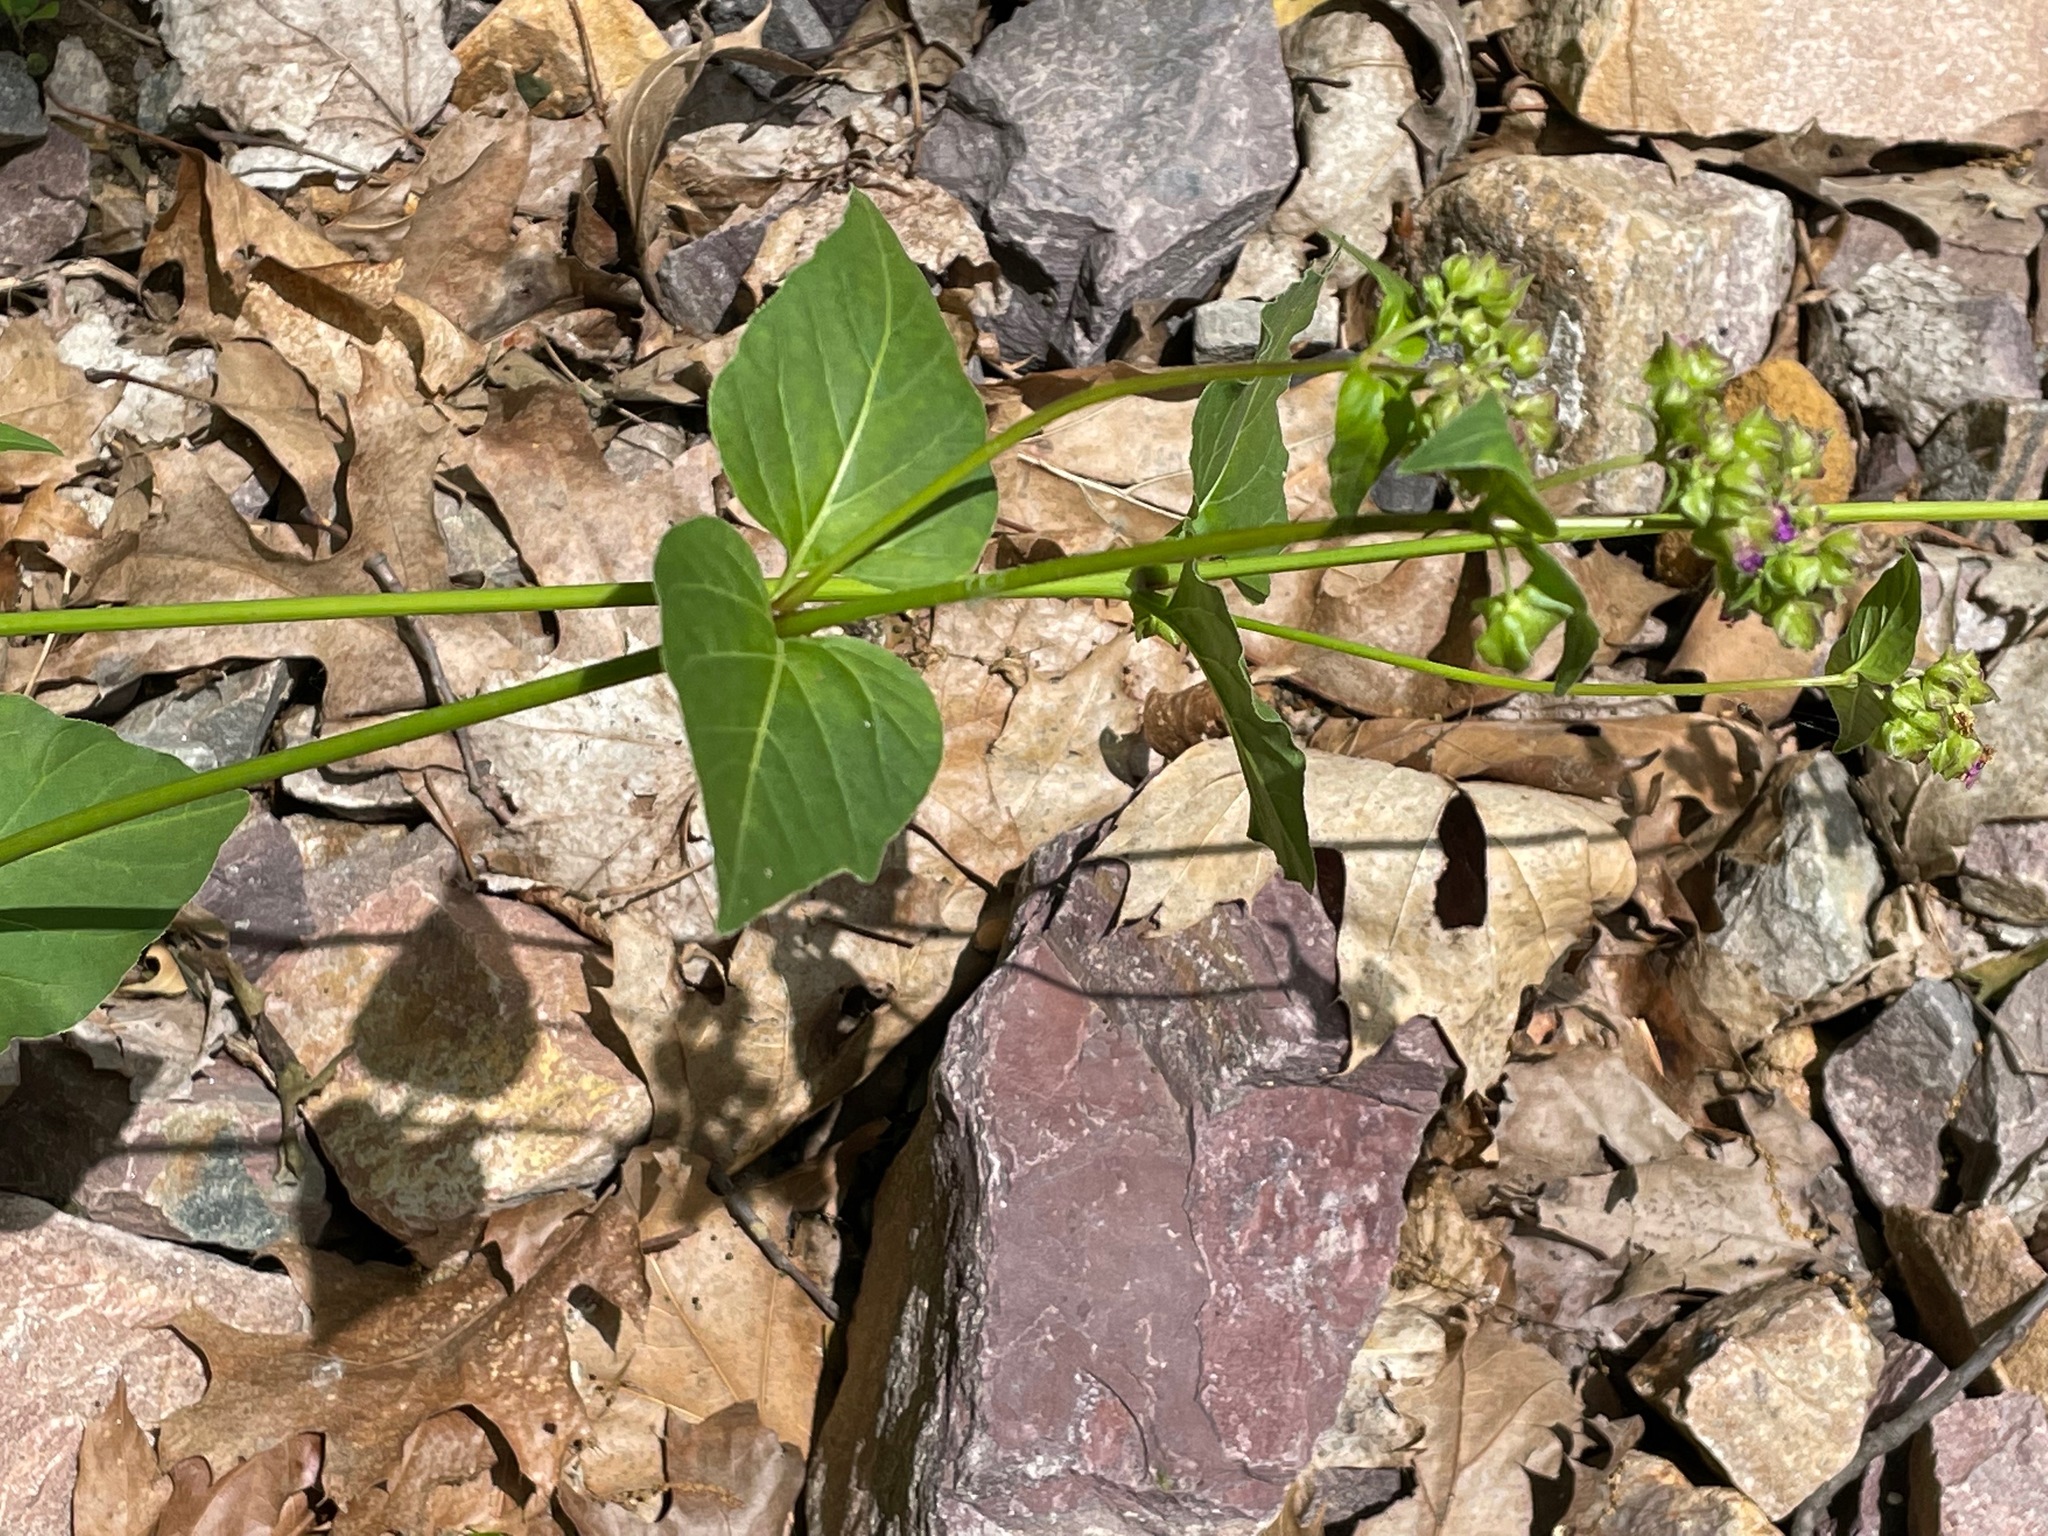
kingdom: Plantae
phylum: Tracheophyta
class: Magnoliopsida
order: Caryophyllales
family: Nyctaginaceae
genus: Mirabilis
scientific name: Mirabilis nyctaginea
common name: Umbrella wort
